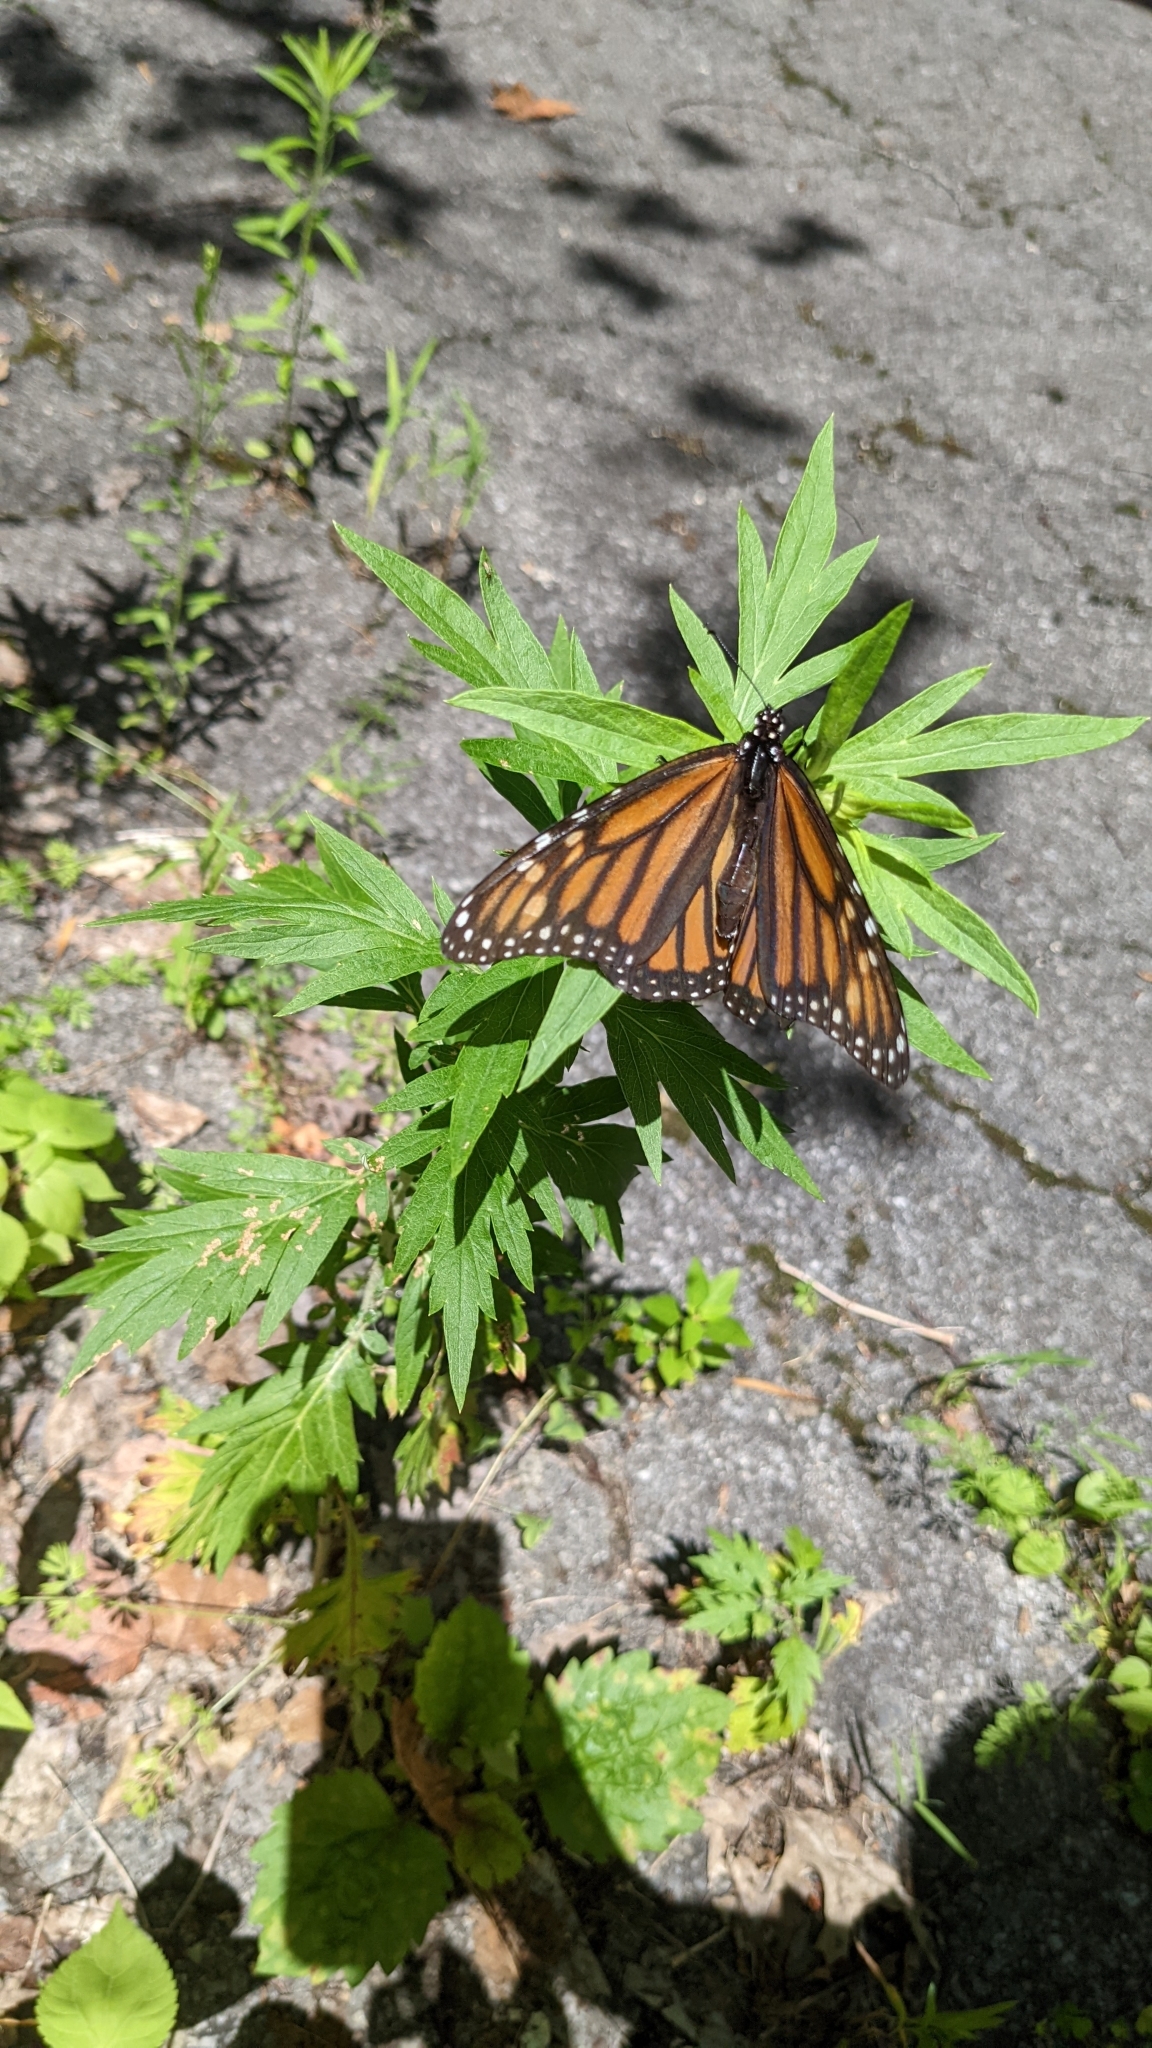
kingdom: Animalia
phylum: Arthropoda
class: Insecta
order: Lepidoptera
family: Nymphalidae
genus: Danaus
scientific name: Danaus plexippus
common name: Monarch
